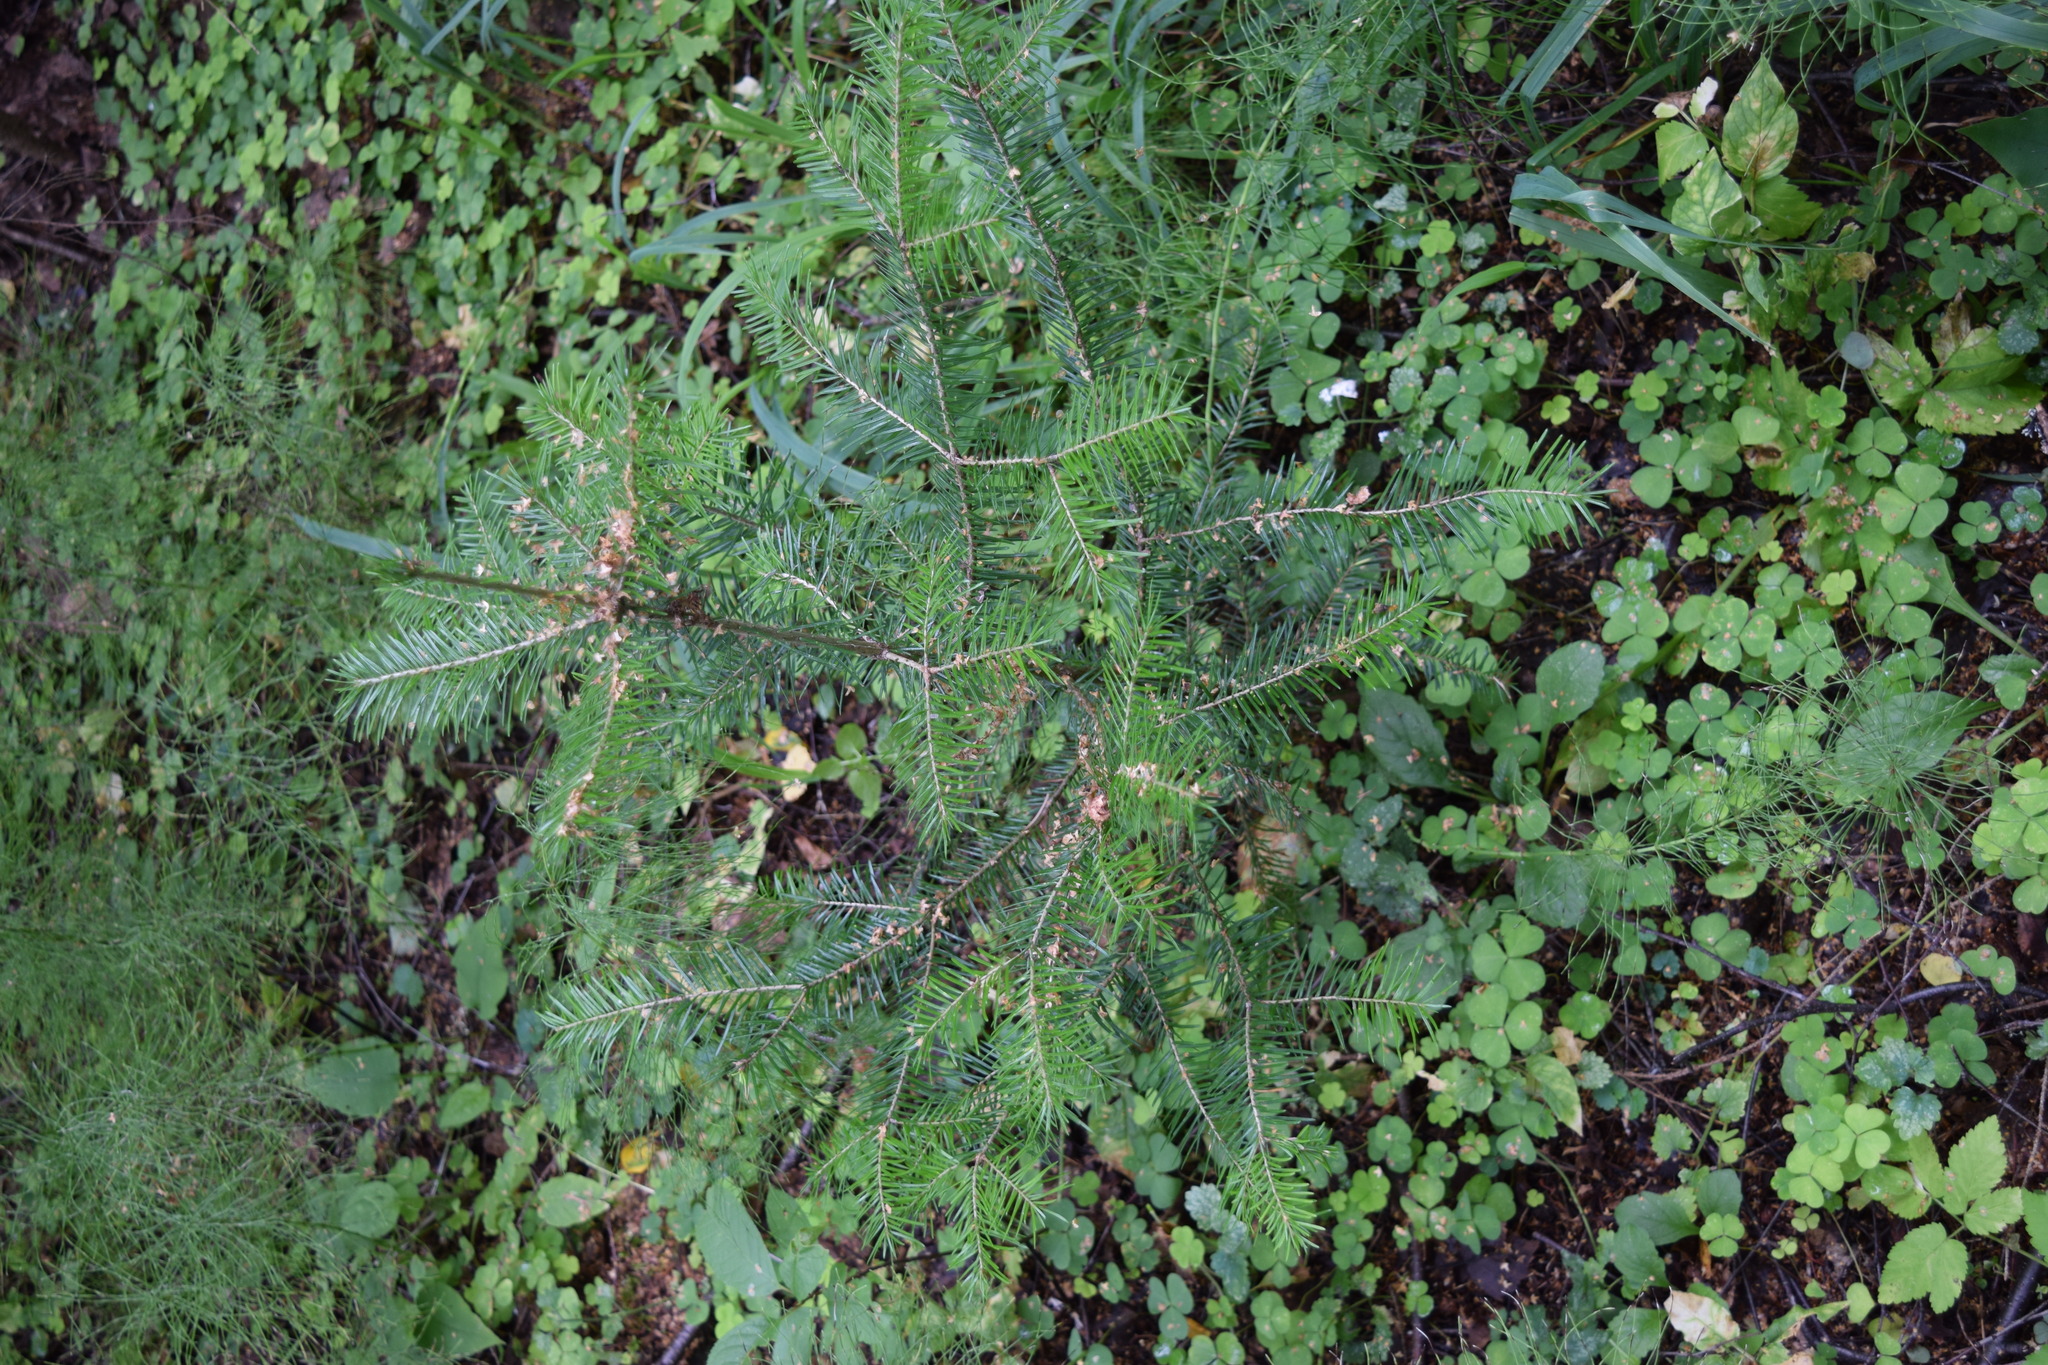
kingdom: Plantae
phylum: Tracheophyta
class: Pinopsida
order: Pinales
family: Pinaceae
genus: Abies
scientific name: Abies sibirica
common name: Siberian fir
